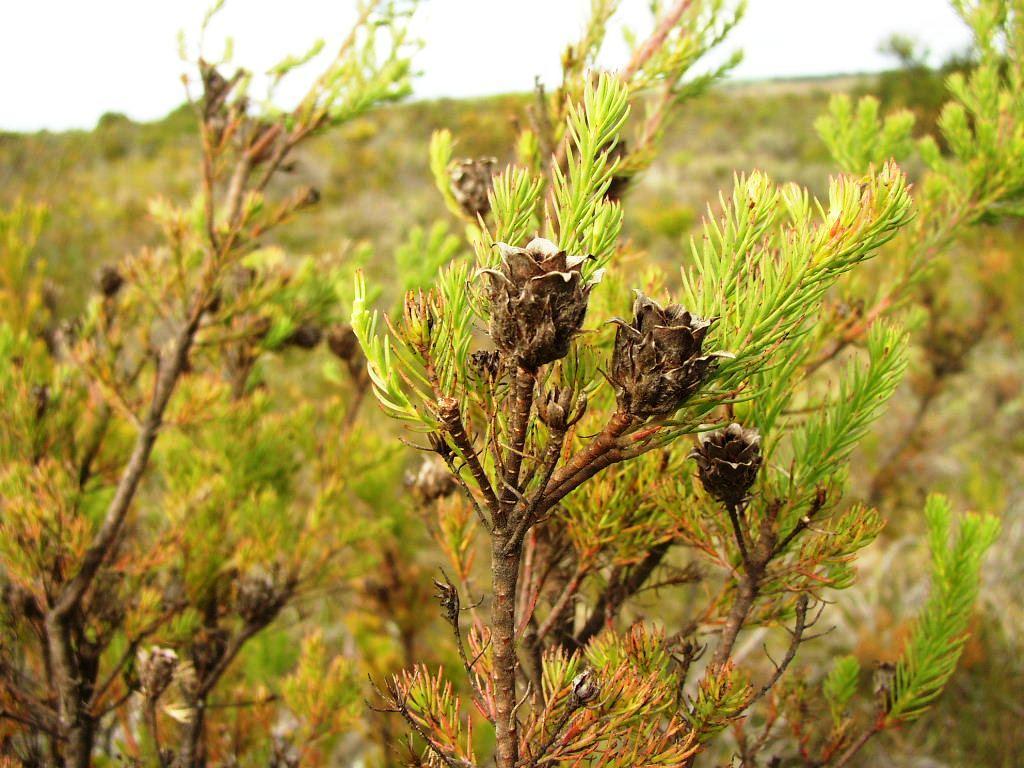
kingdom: Plantae
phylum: Tracheophyta
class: Magnoliopsida
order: Proteales
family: Proteaceae
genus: Leucadendron
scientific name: Leucadendron laxum
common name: Bredasdorp conebush
